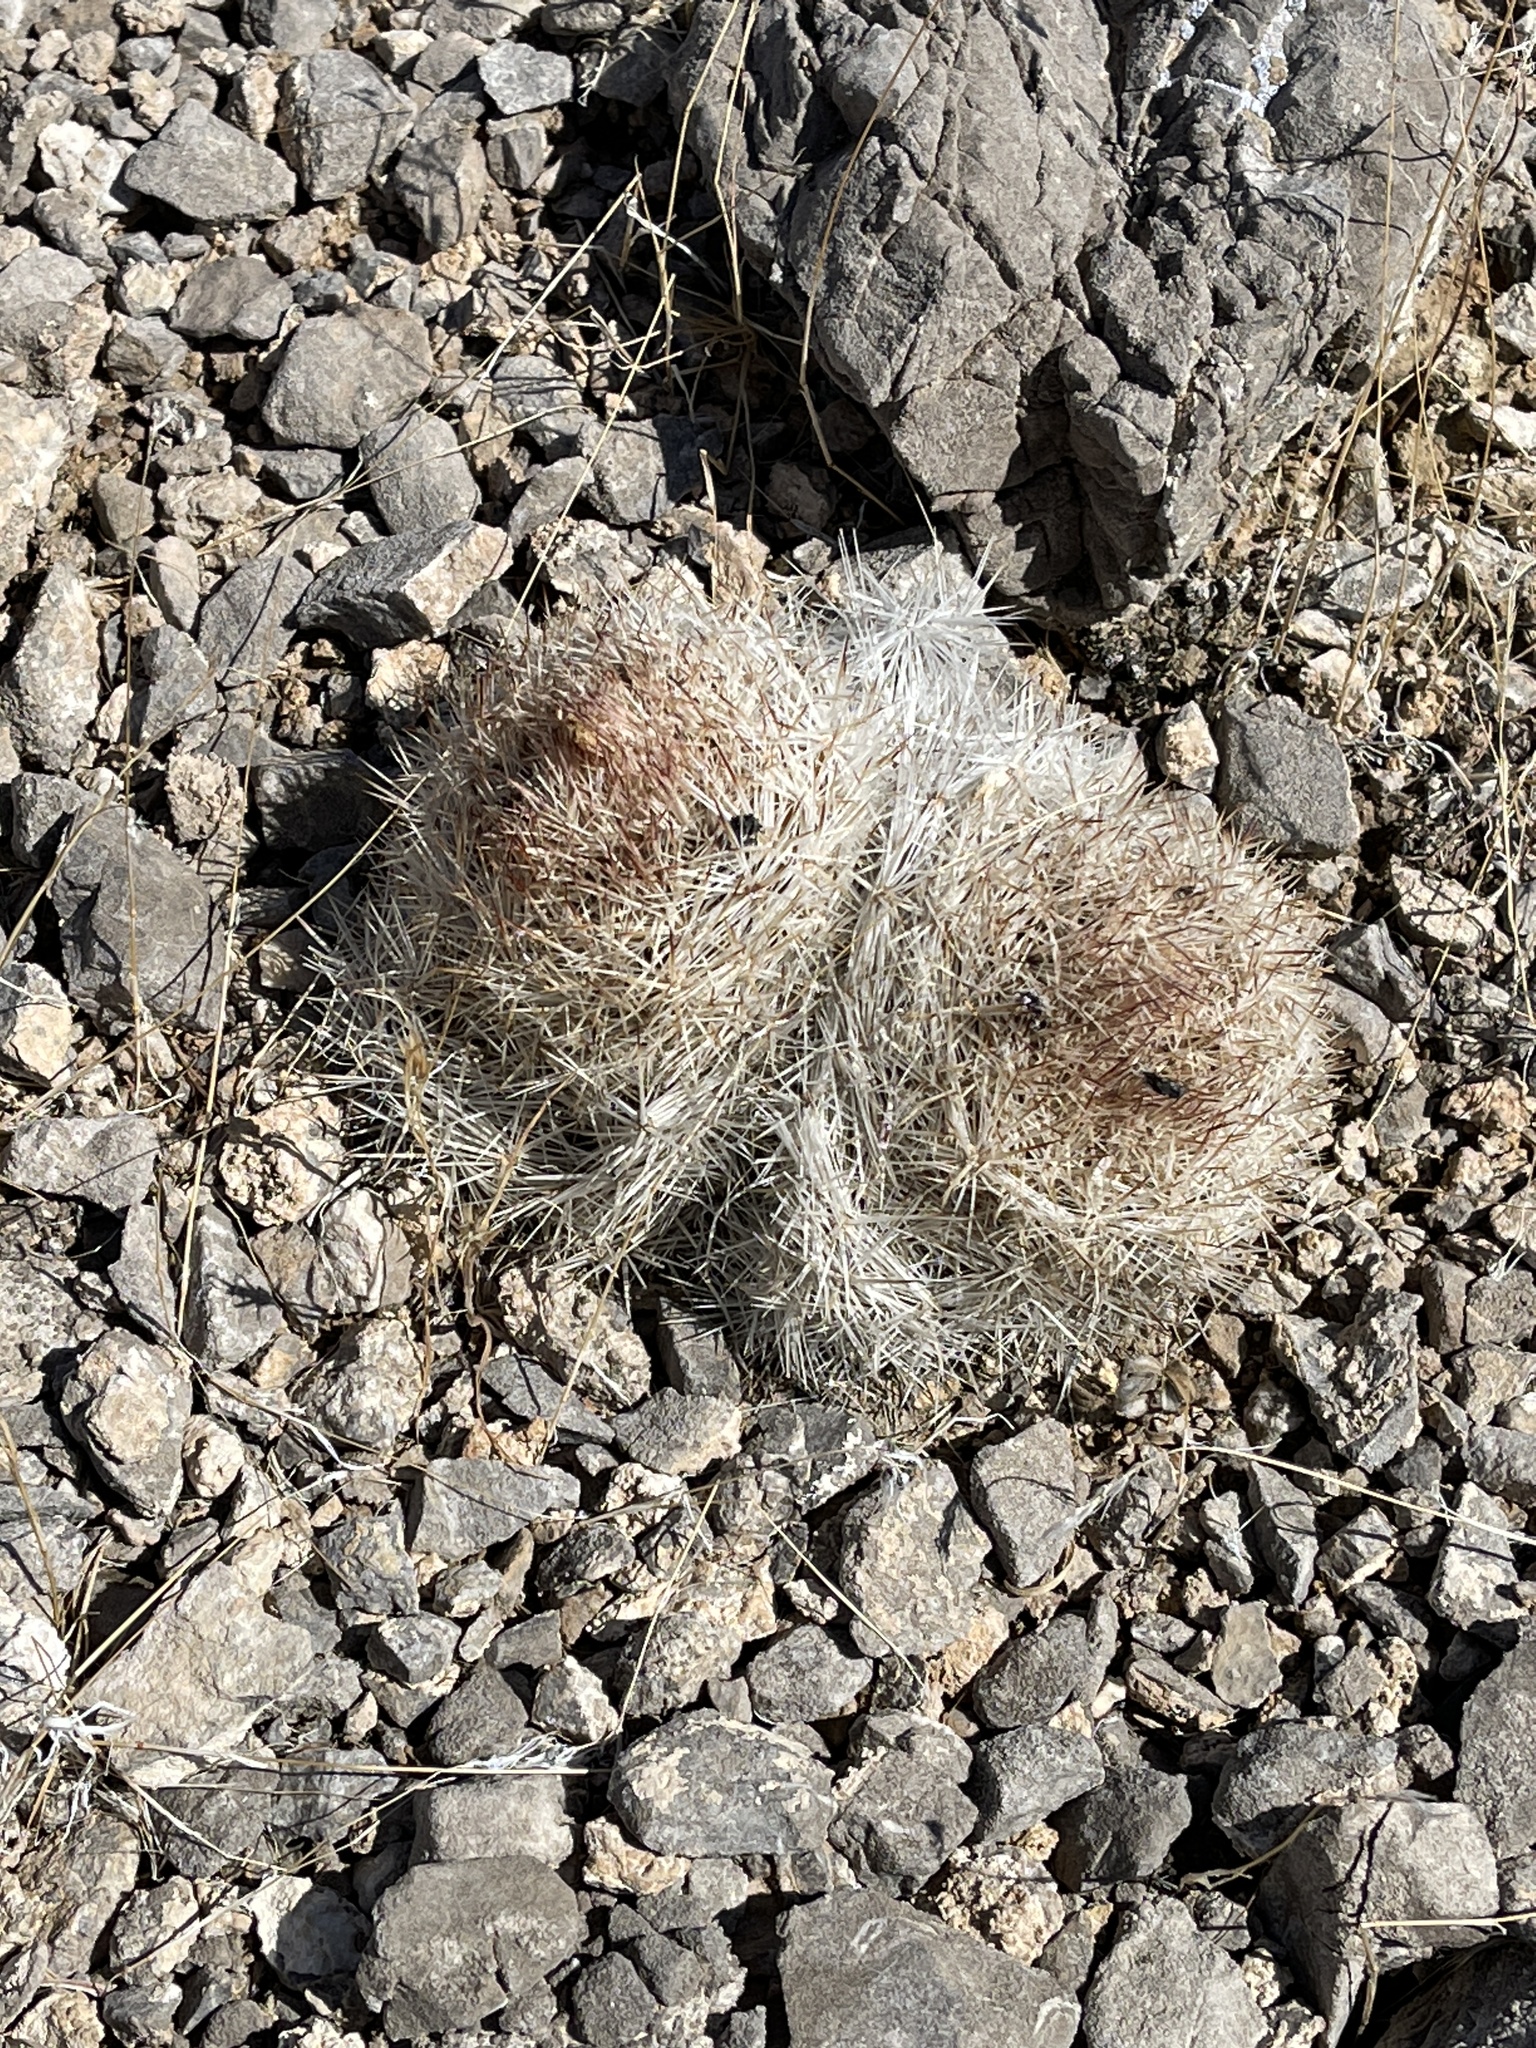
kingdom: Plantae
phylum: Tracheophyta
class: Magnoliopsida
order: Caryophyllales
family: Cactaceae
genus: Pelecyphora
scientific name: Pelecyphora dasyacantha
